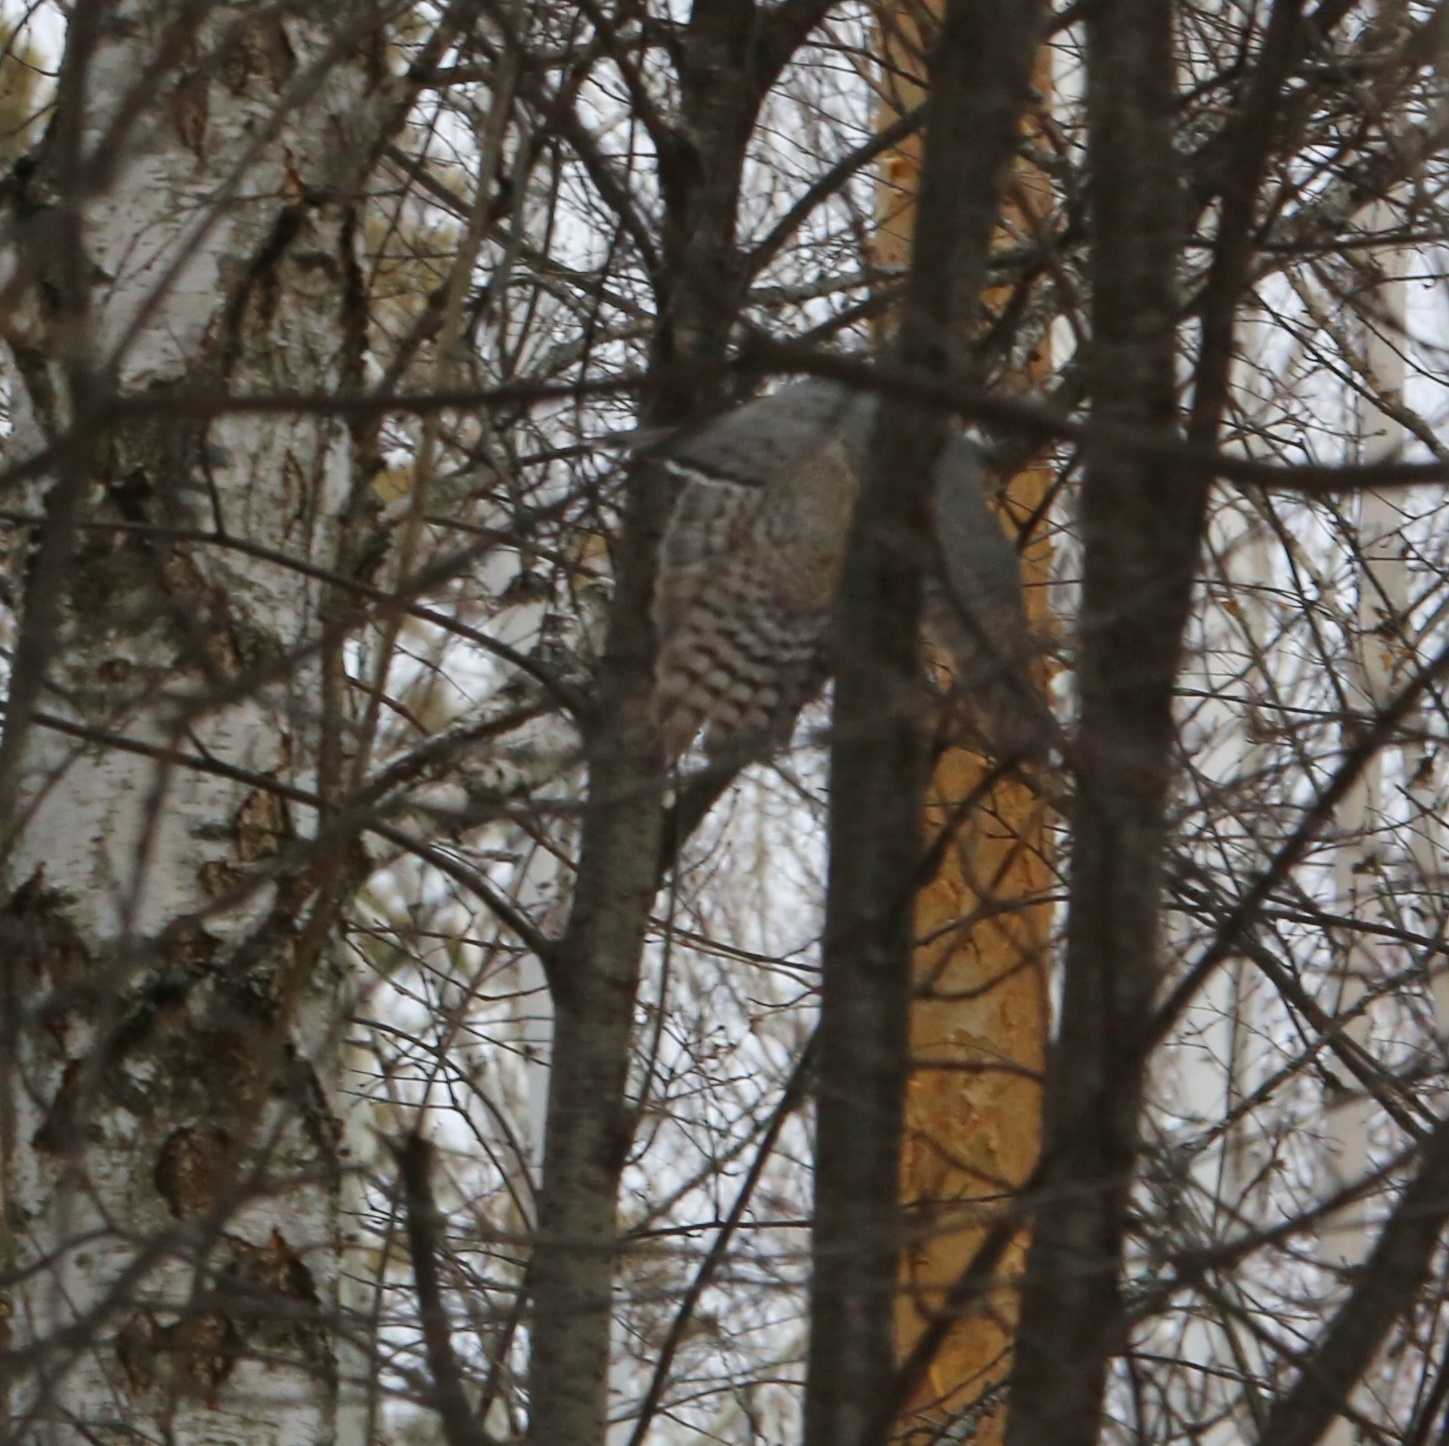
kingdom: Animalia
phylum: Chordata
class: Aves
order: Accipitriformes
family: Accipitridae
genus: Accipiter
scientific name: Accipiter nisus
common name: Eurasian sparrowhawk
